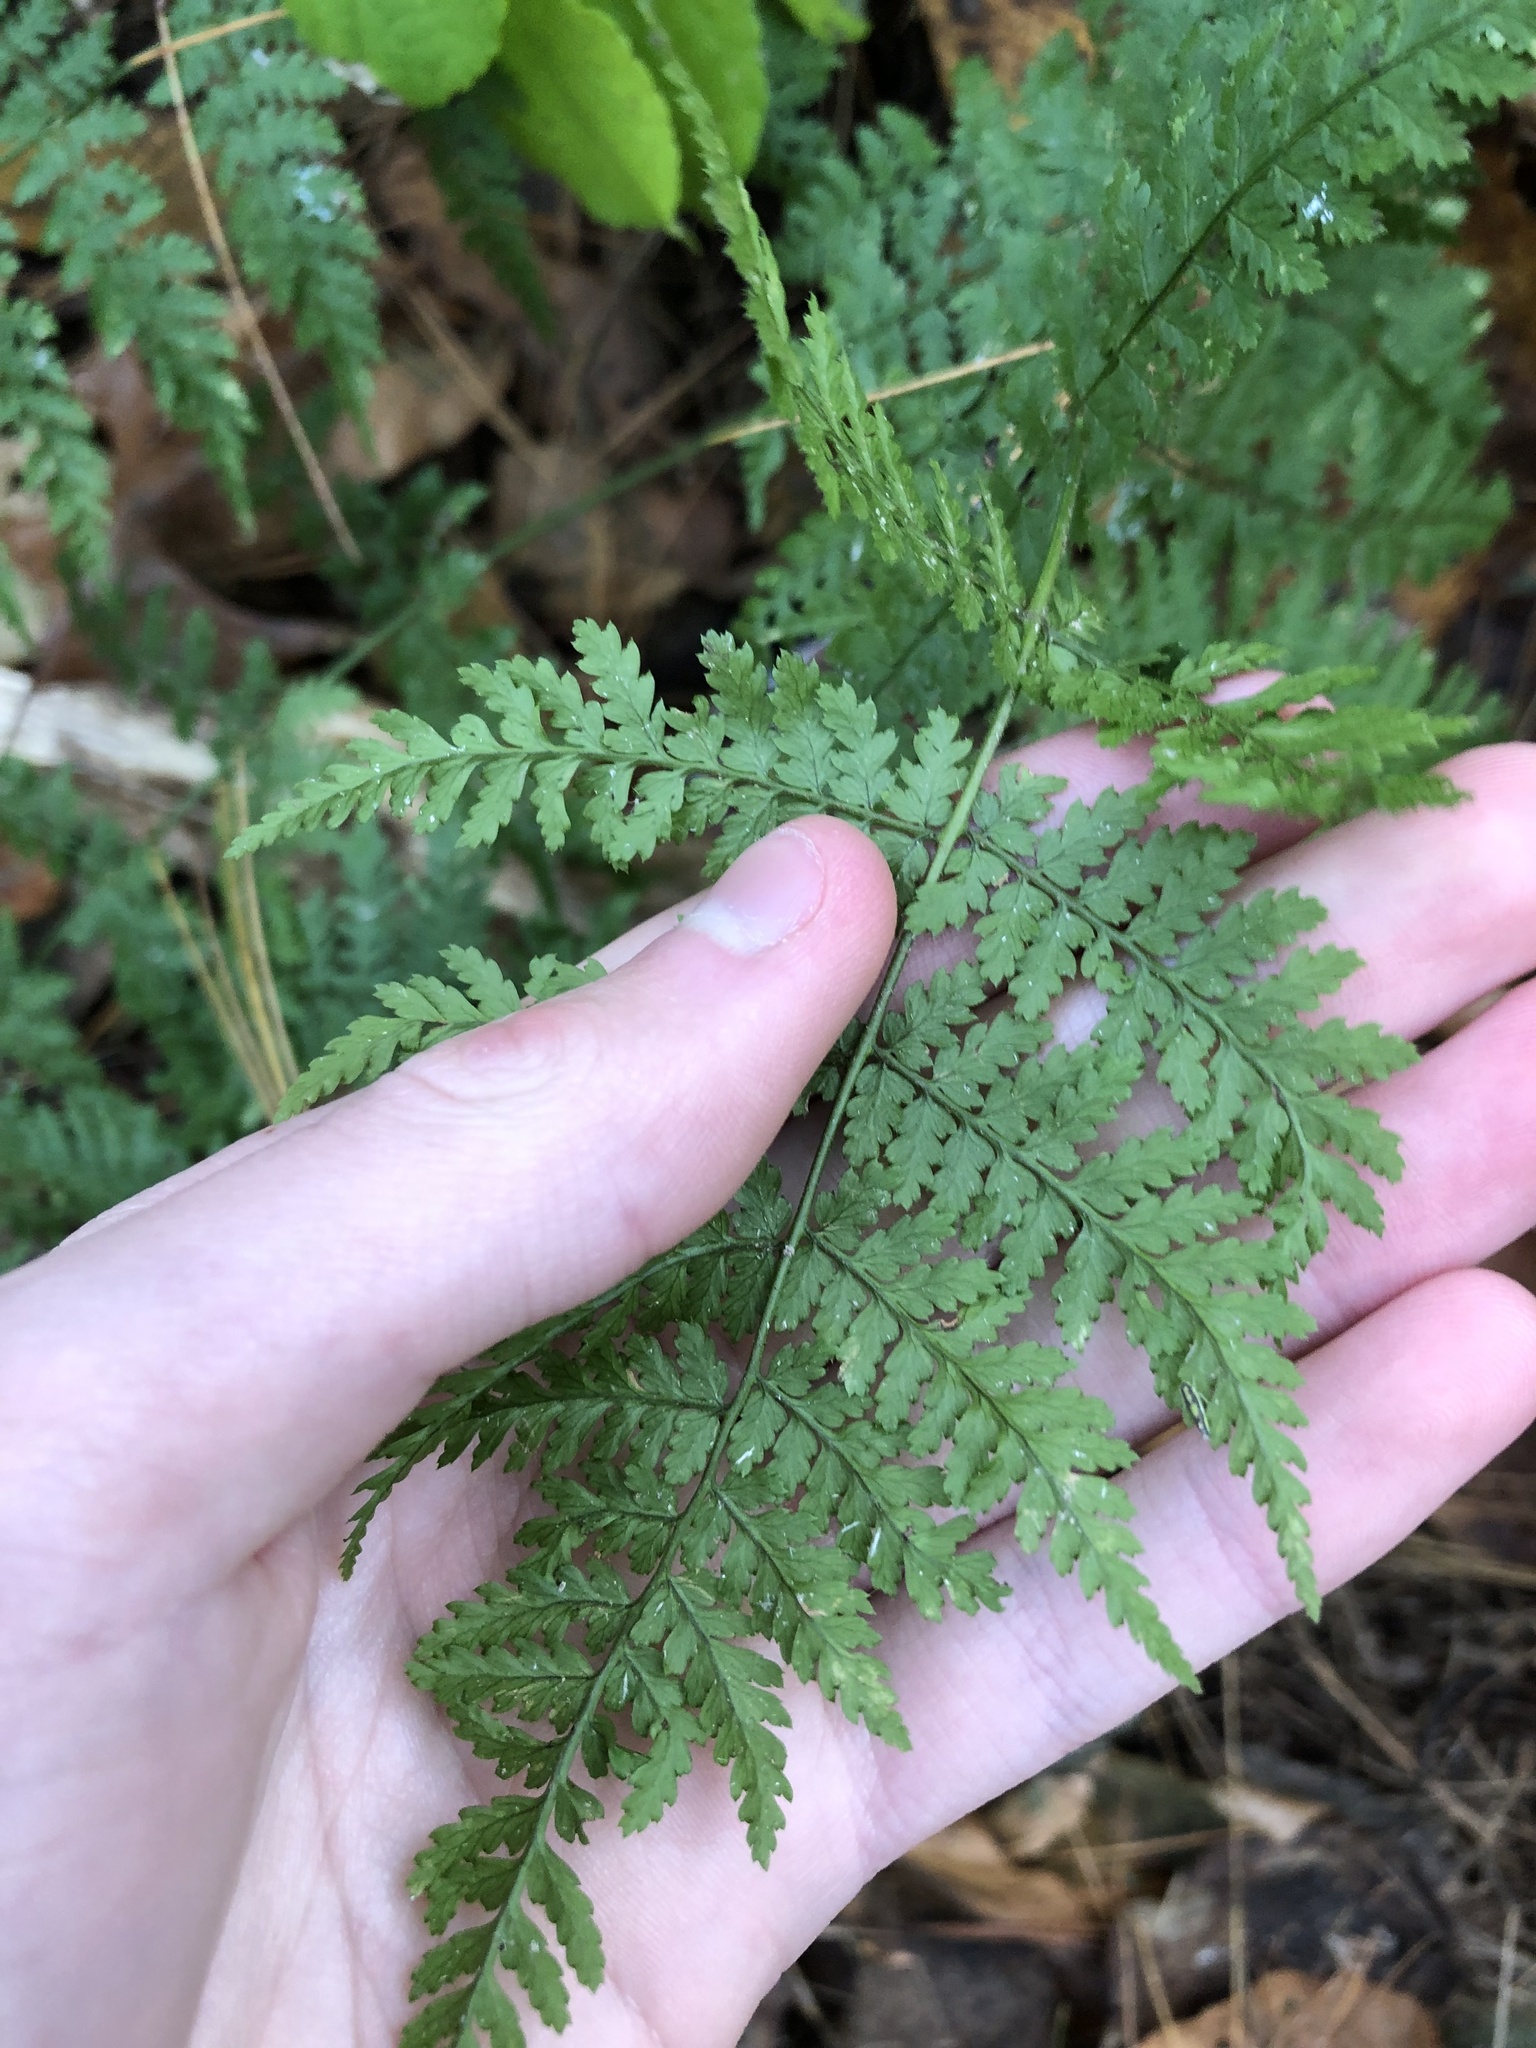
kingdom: Plantae
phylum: Tracheophyta
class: Polypodiopsida
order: Polypodiales
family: Dryopteridaceae
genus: Dryopteris
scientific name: Dryopteris intermedia
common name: Evergreen wood fern
